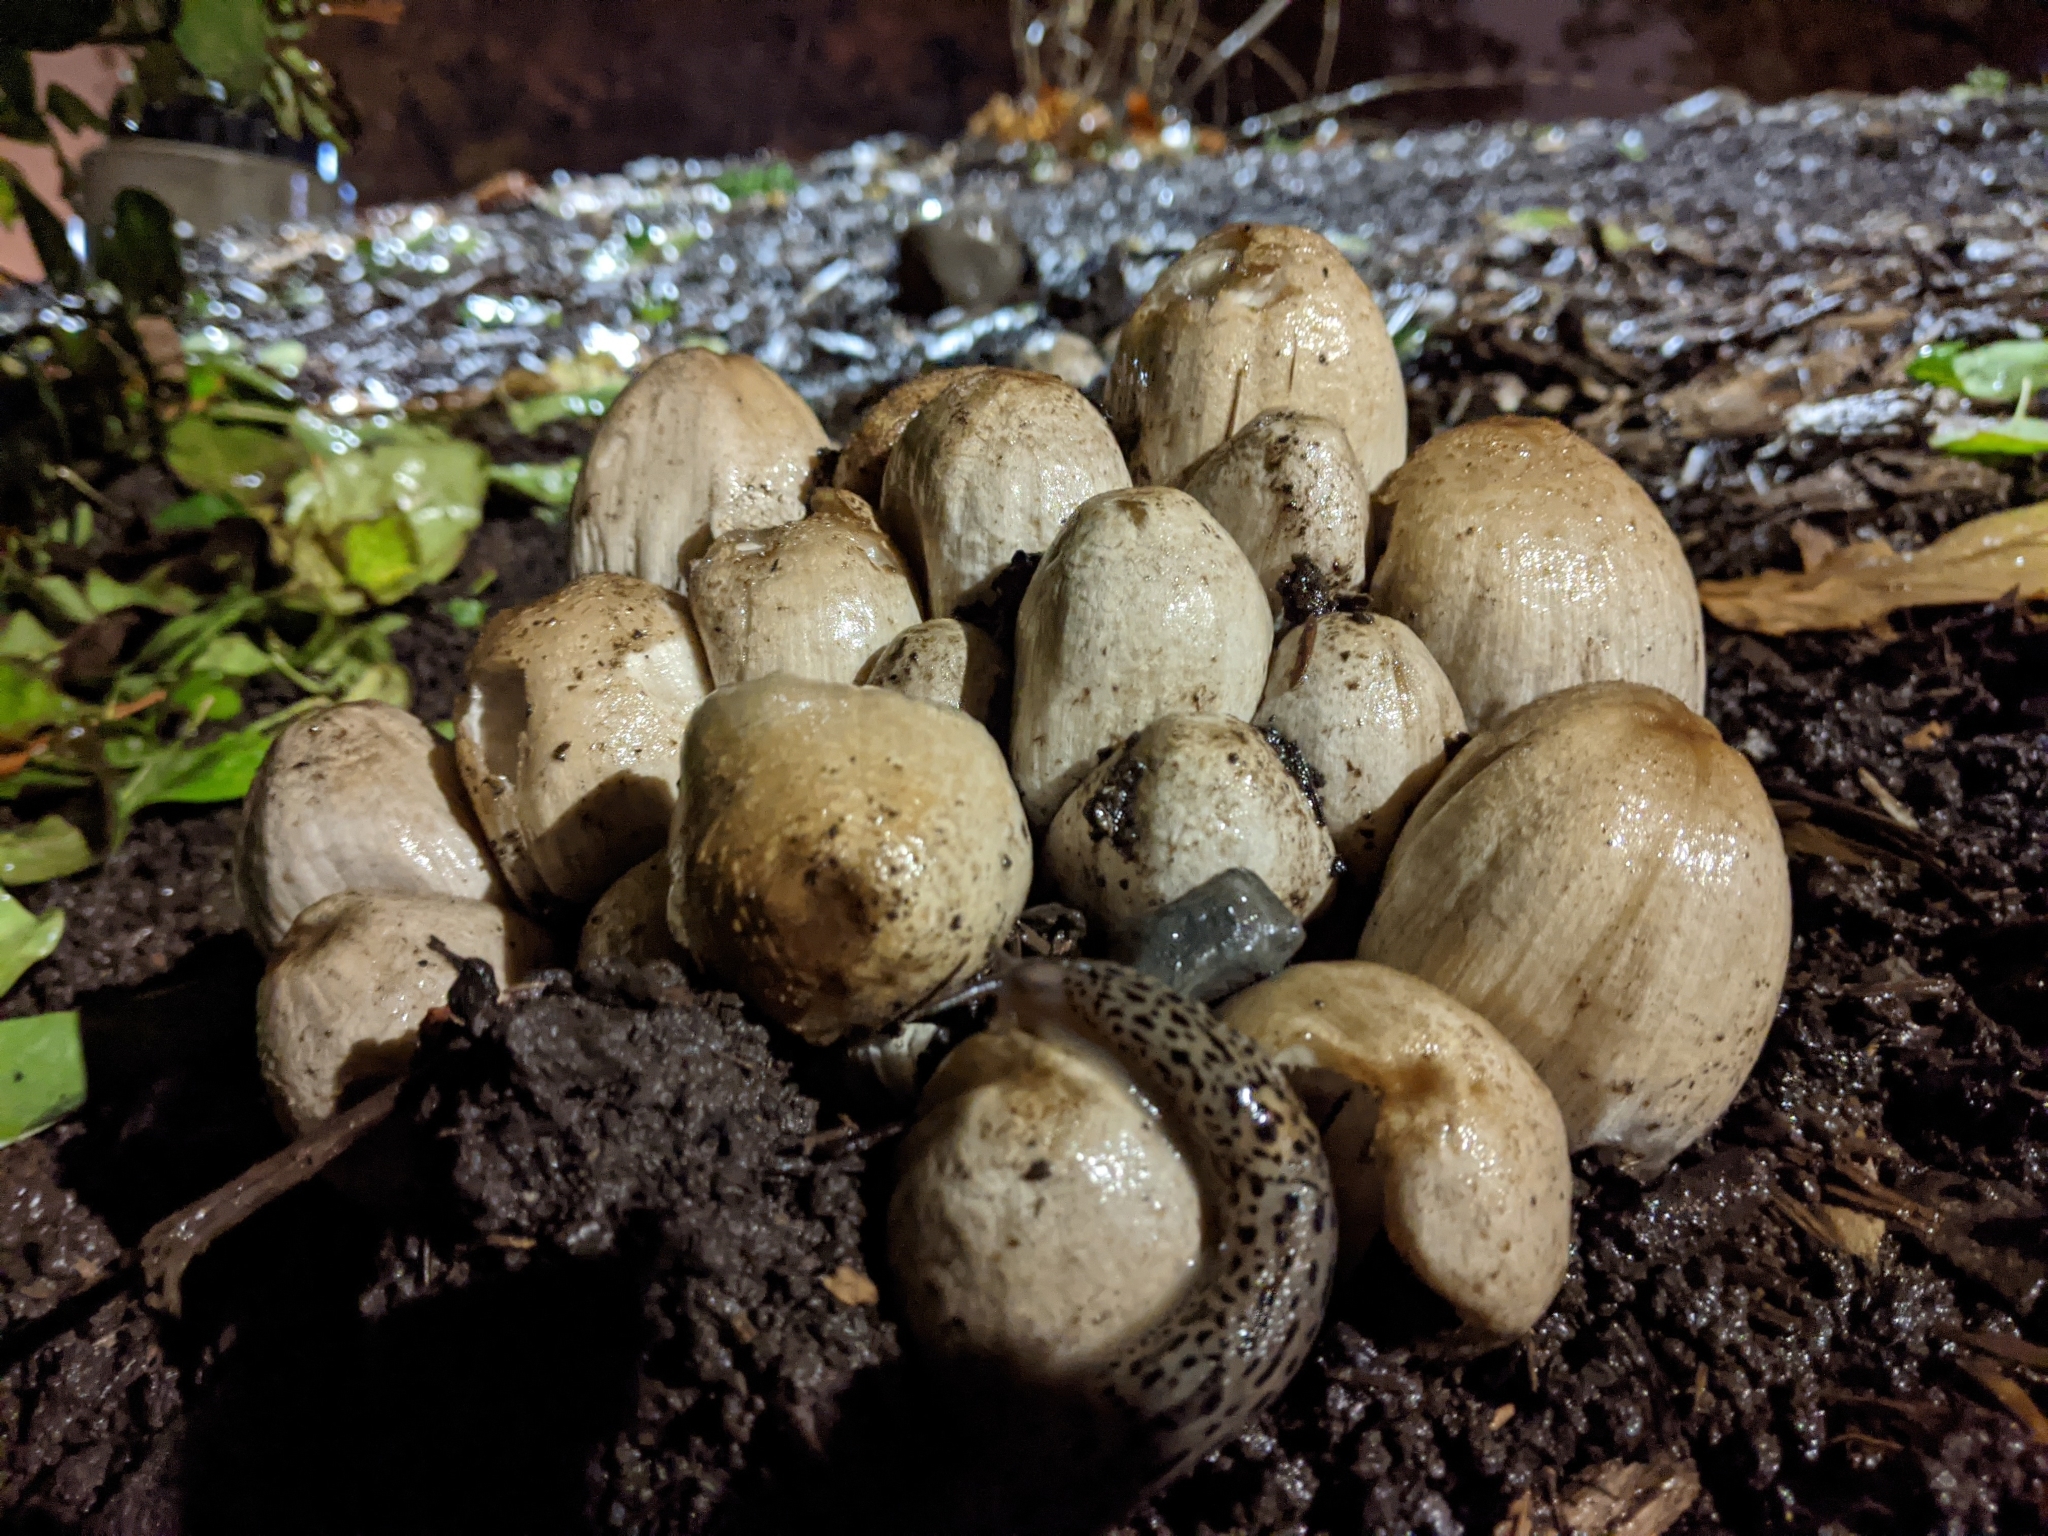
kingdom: Fungi
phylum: Basidiomycota
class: Agaricomycetes
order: Agaricales
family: Psathyrellaceae
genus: Coprinopsis
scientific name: Coprinopsis atramentaria
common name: Common ink-cap
